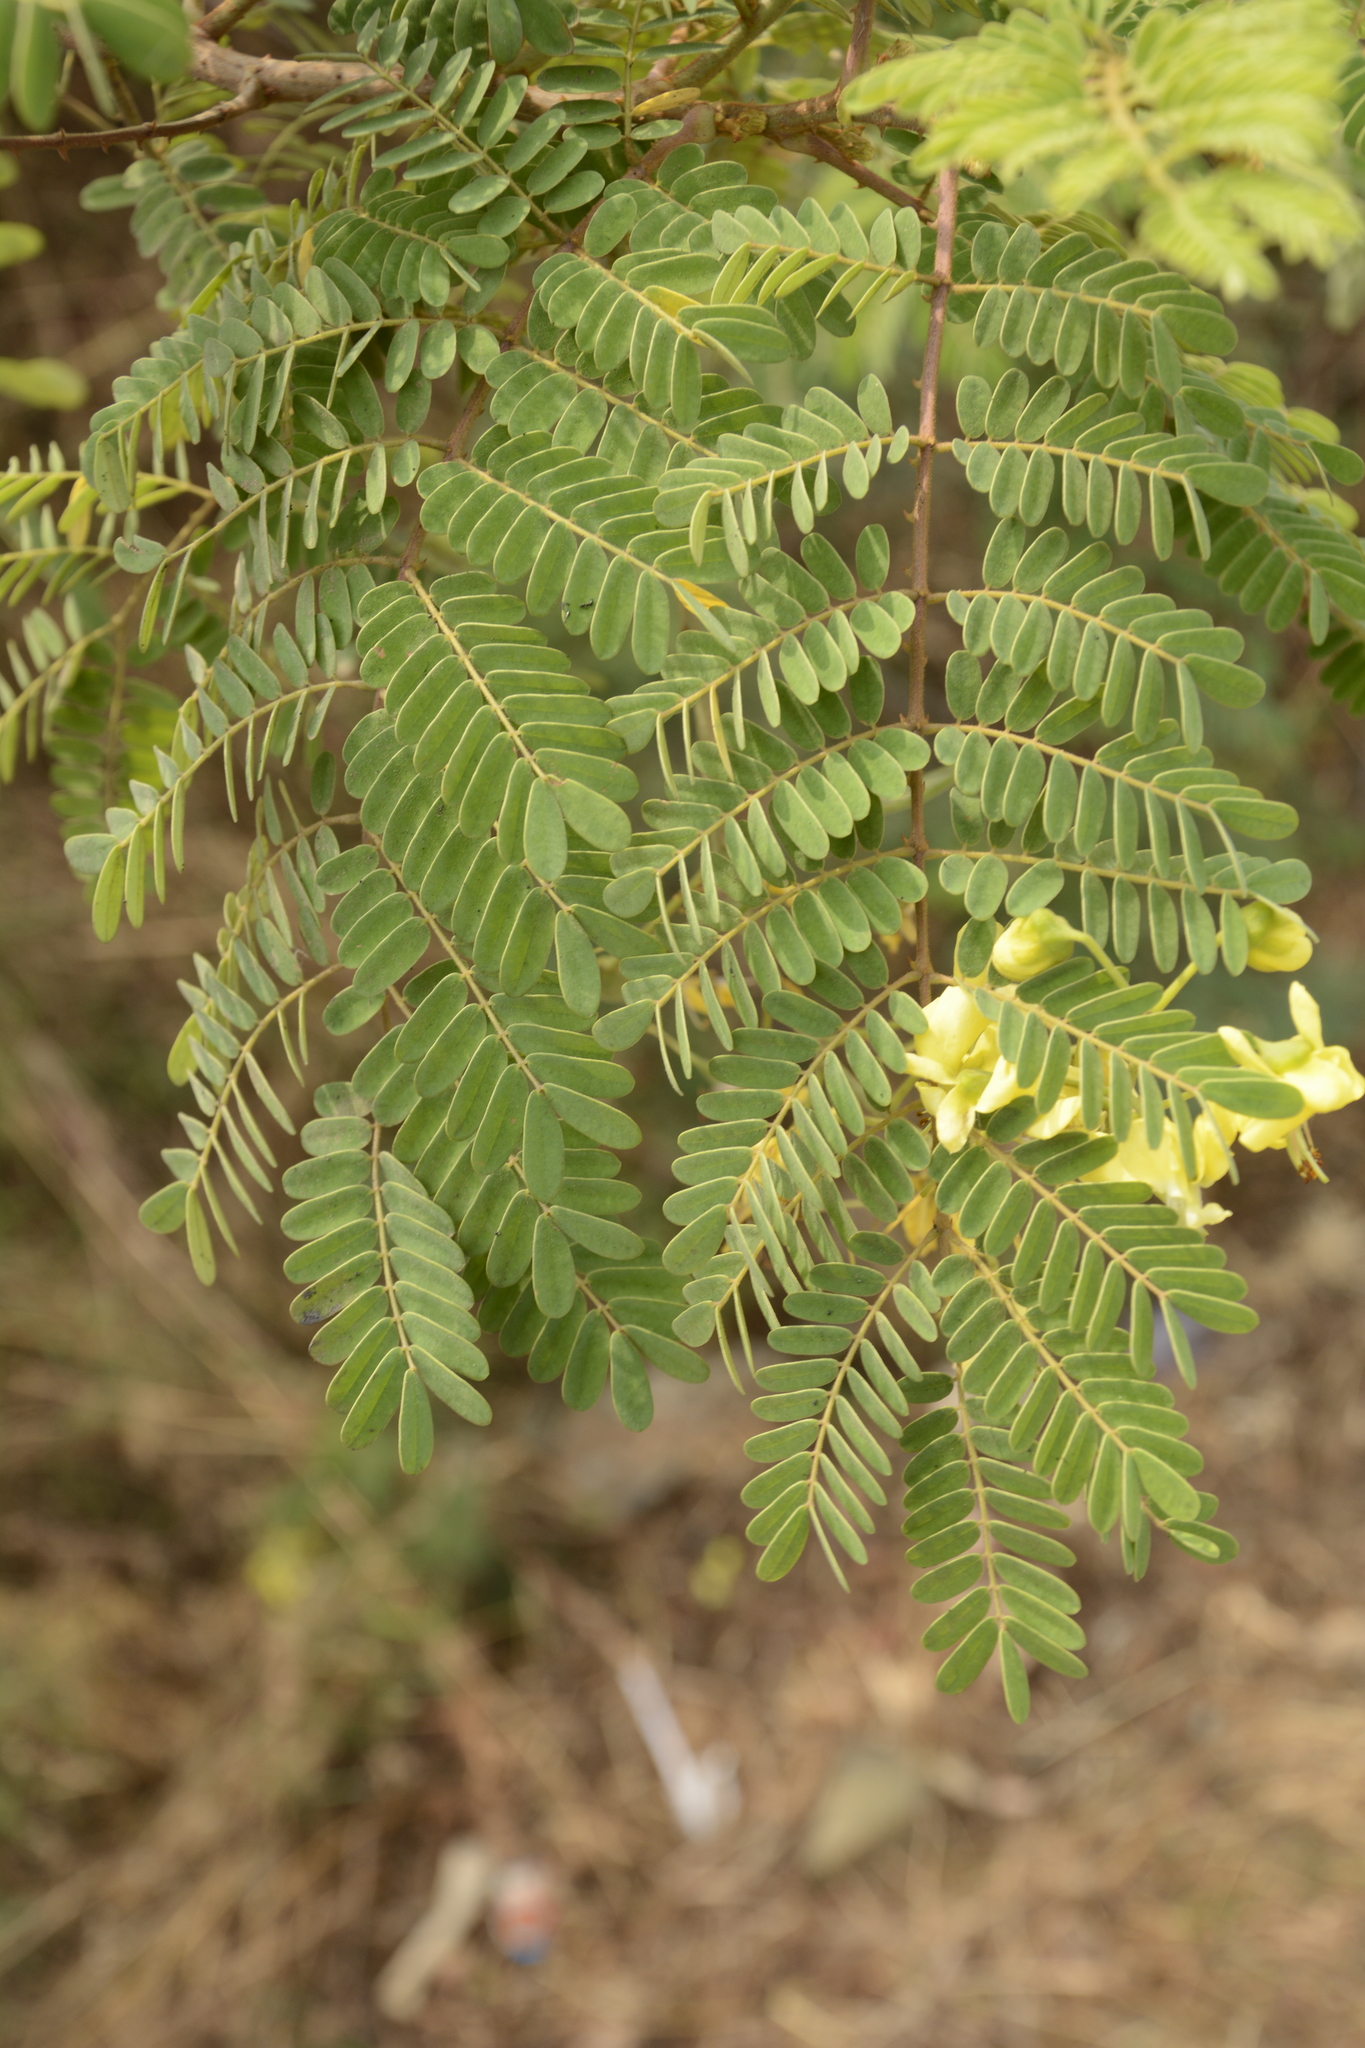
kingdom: Plantae
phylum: Tracheophyta
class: Magnoliopsida
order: Fabales
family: Fabaceae
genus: Biancaea
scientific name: Biancaea decapetala
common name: Cat's claw
